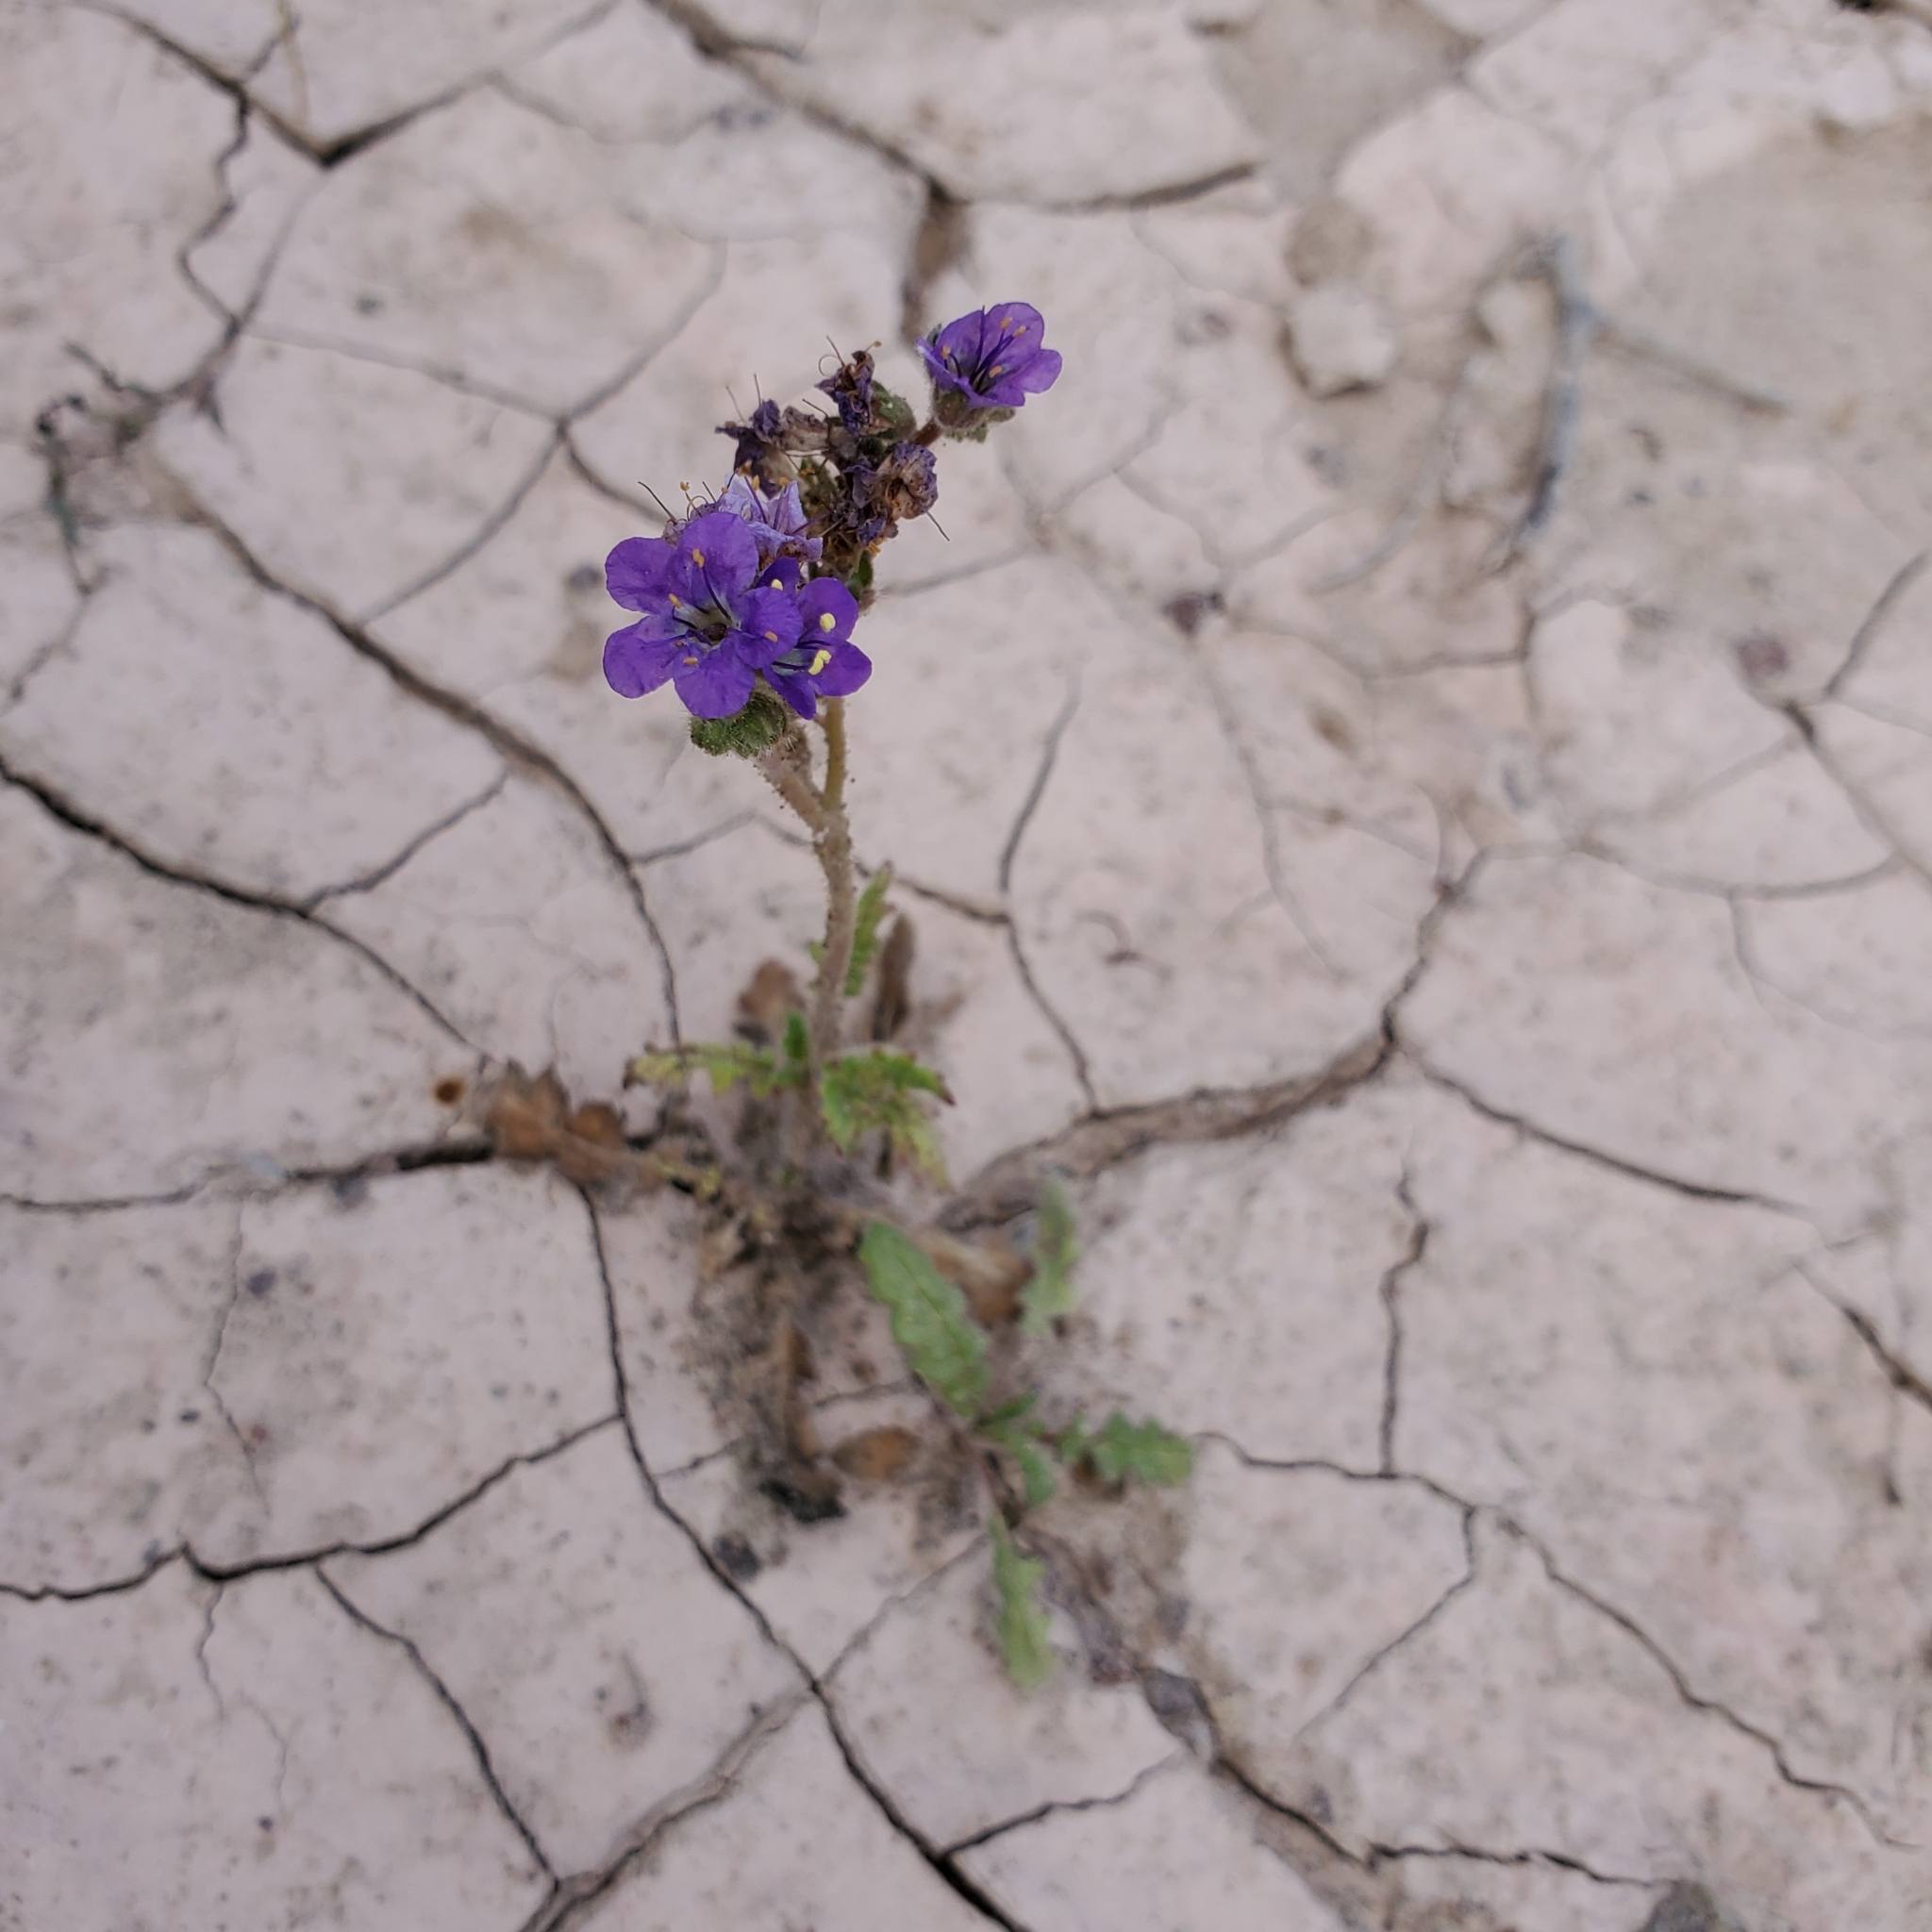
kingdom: Plantae
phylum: Tracheophyta
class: Magnoliopsida
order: Boraginales
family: Hydrophyllaceae
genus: Phacelia
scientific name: Phacelia crenulata
